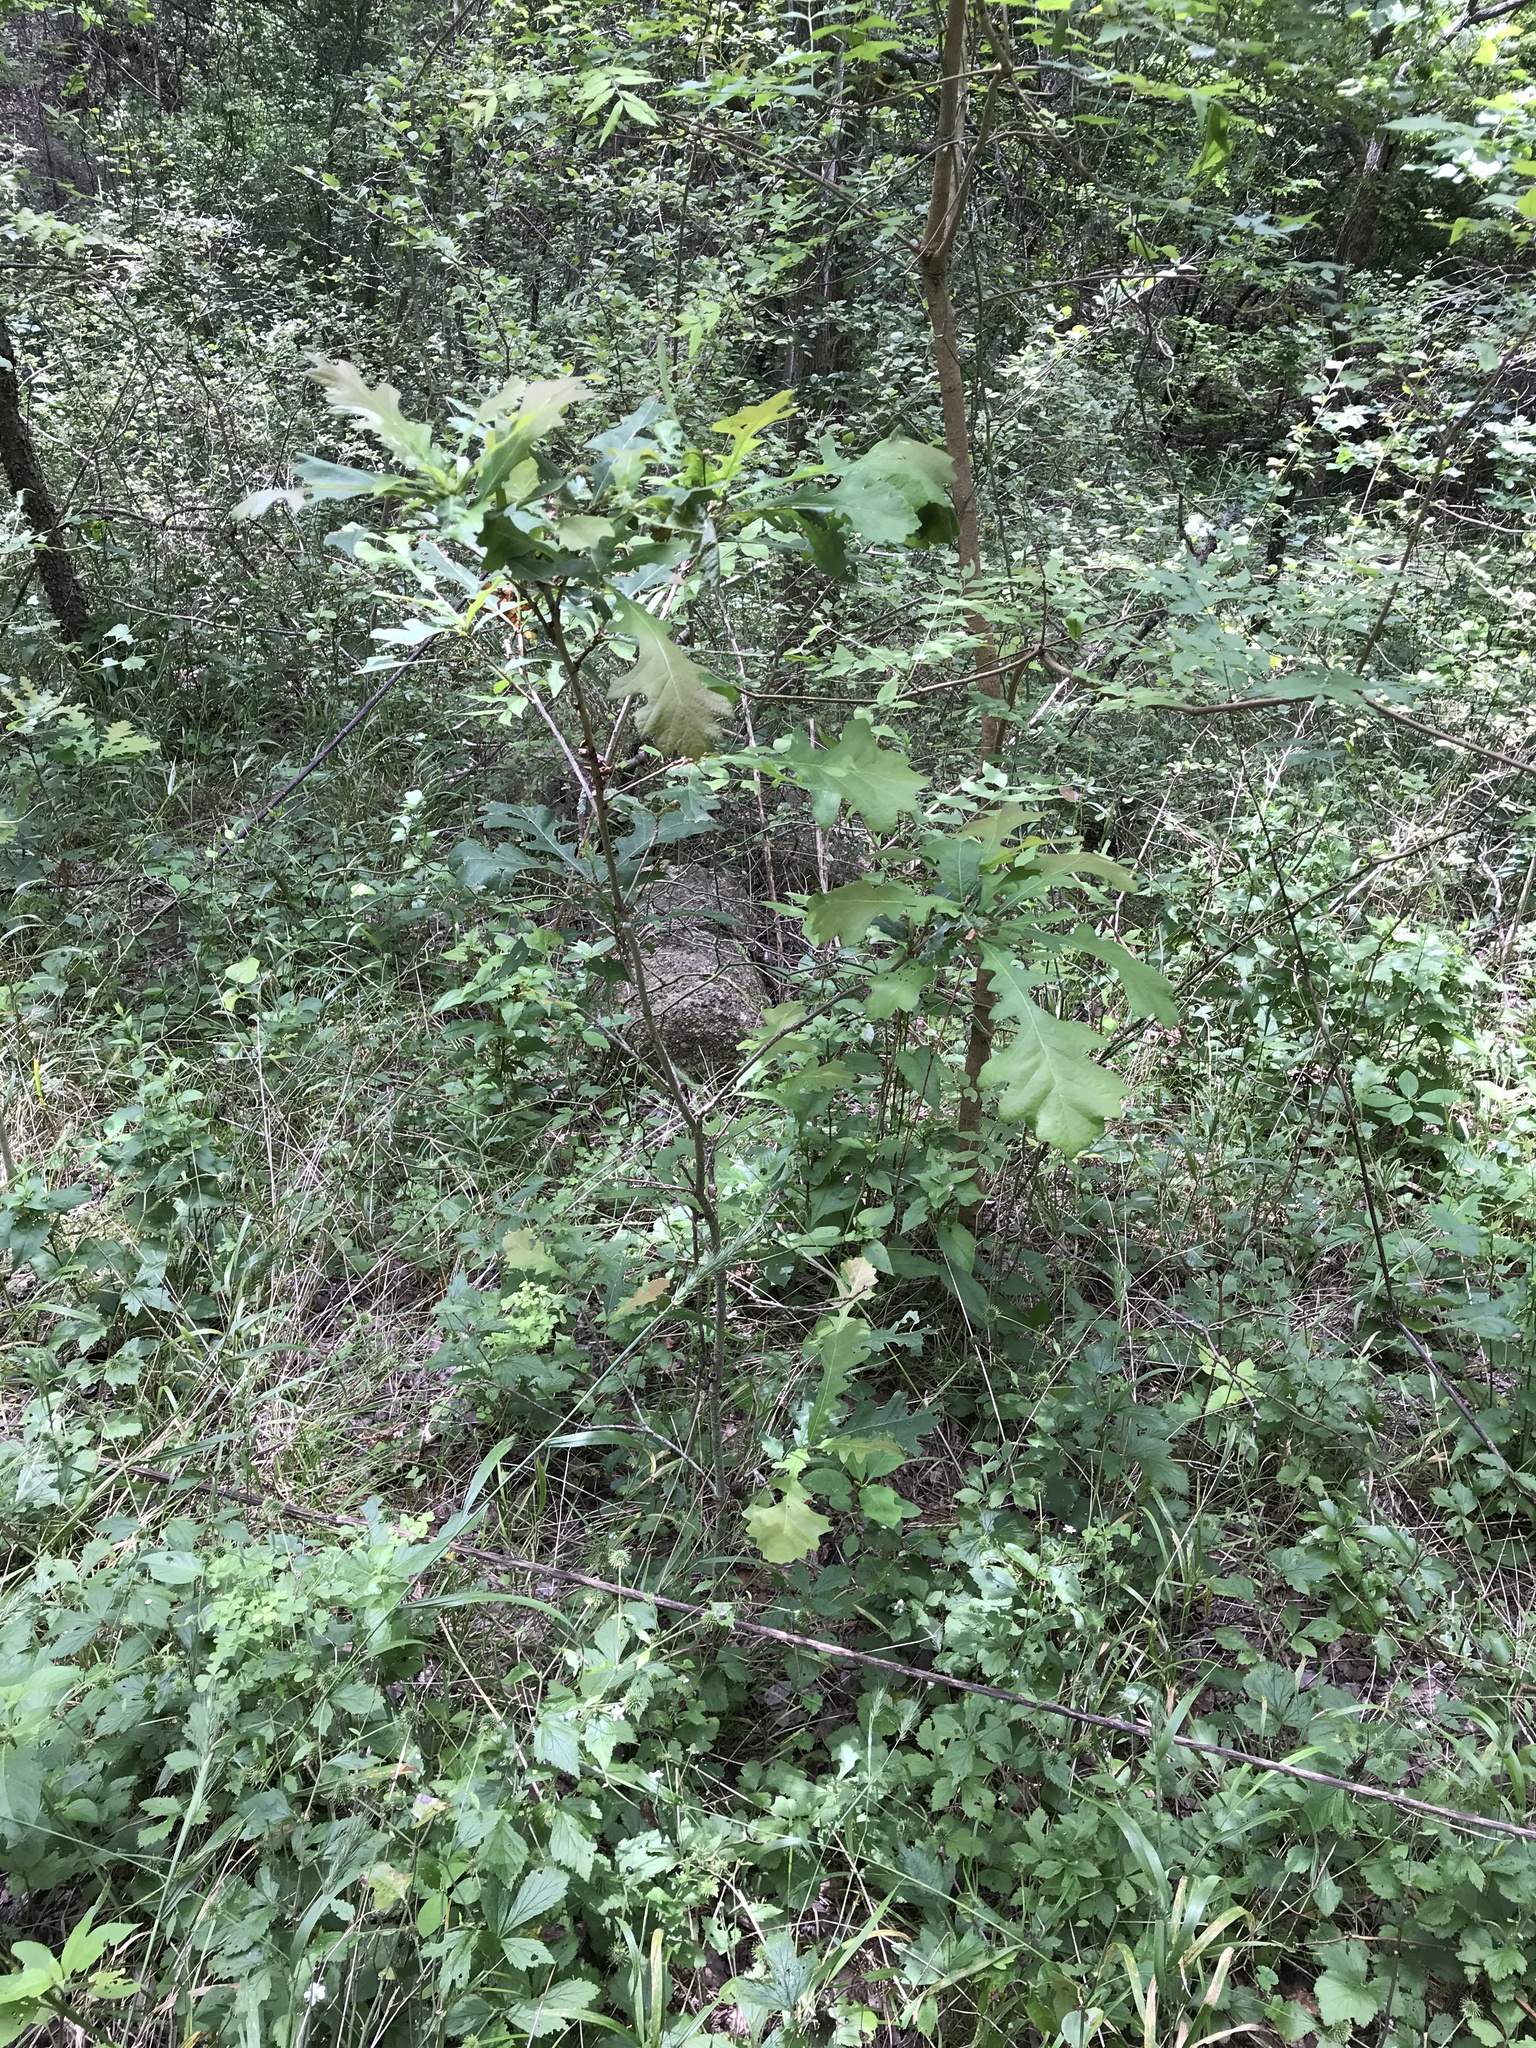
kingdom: Plantae
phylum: Tracheophyta
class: Magnoliopsida
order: Fagales
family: Fagaceae
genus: Quercus
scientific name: Quercus macrocarpa
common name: Bur oak
